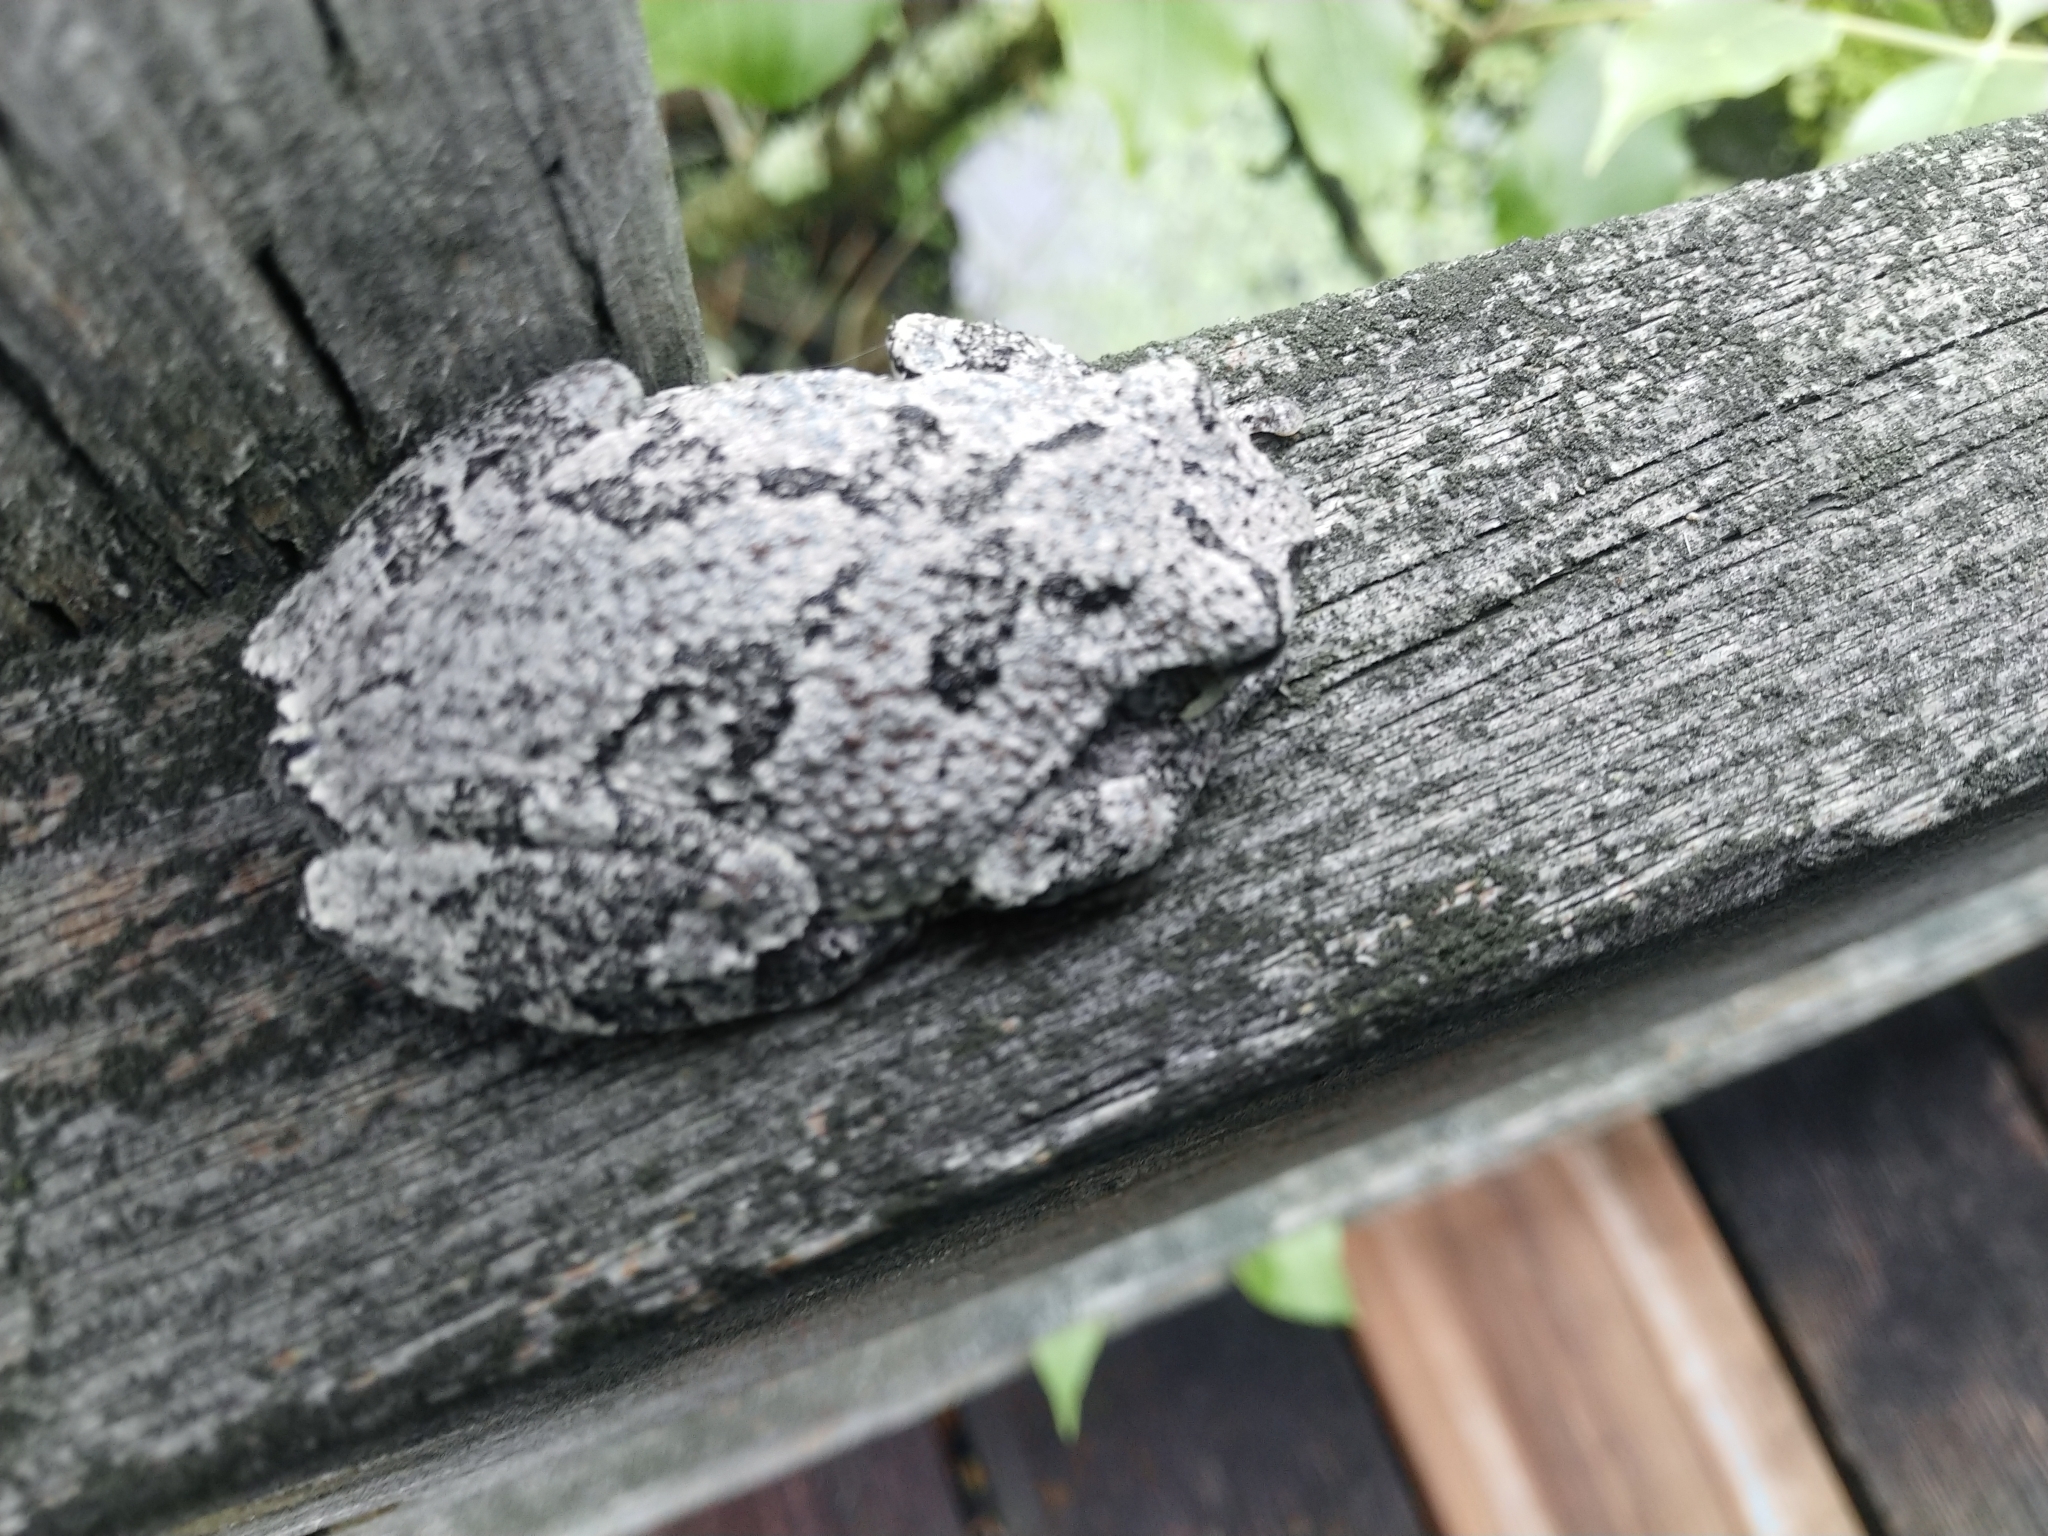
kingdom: Animalia
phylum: Chordata
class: Amphibia
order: Anura
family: Hylidae
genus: Dryophytes
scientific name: Dryophytes versicolor
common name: Gray treefrog
